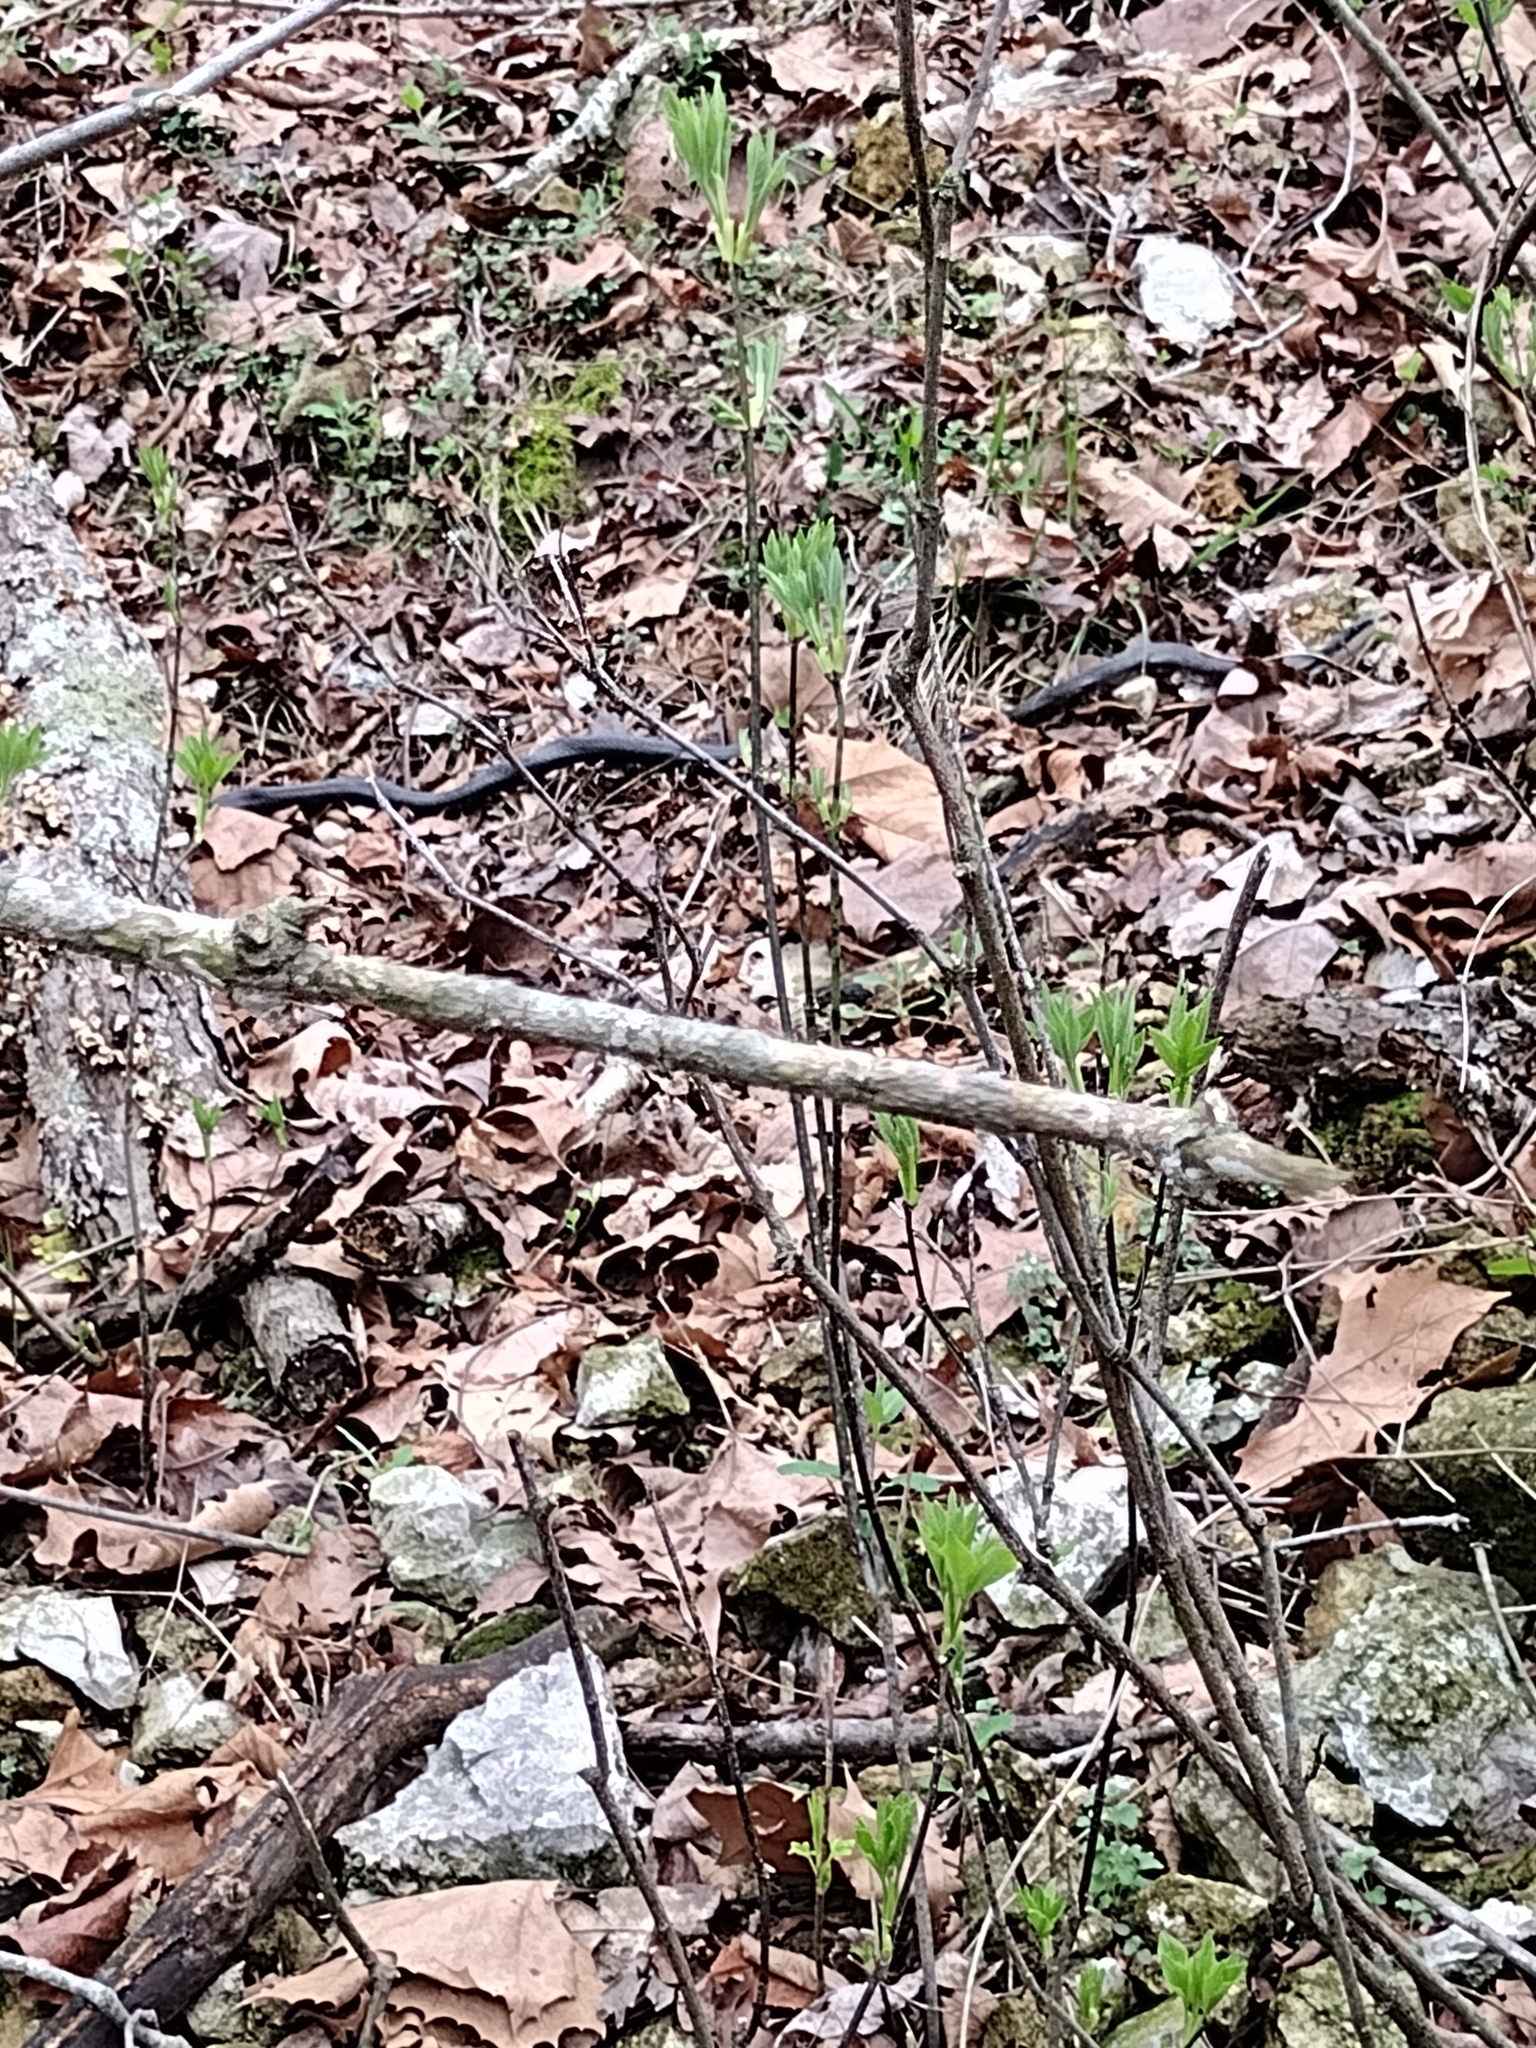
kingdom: Animalia
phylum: Chordata
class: Squamata
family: Colubridae
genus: Pantherophis
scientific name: Pantherophis obsoletus
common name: Black rat snake
